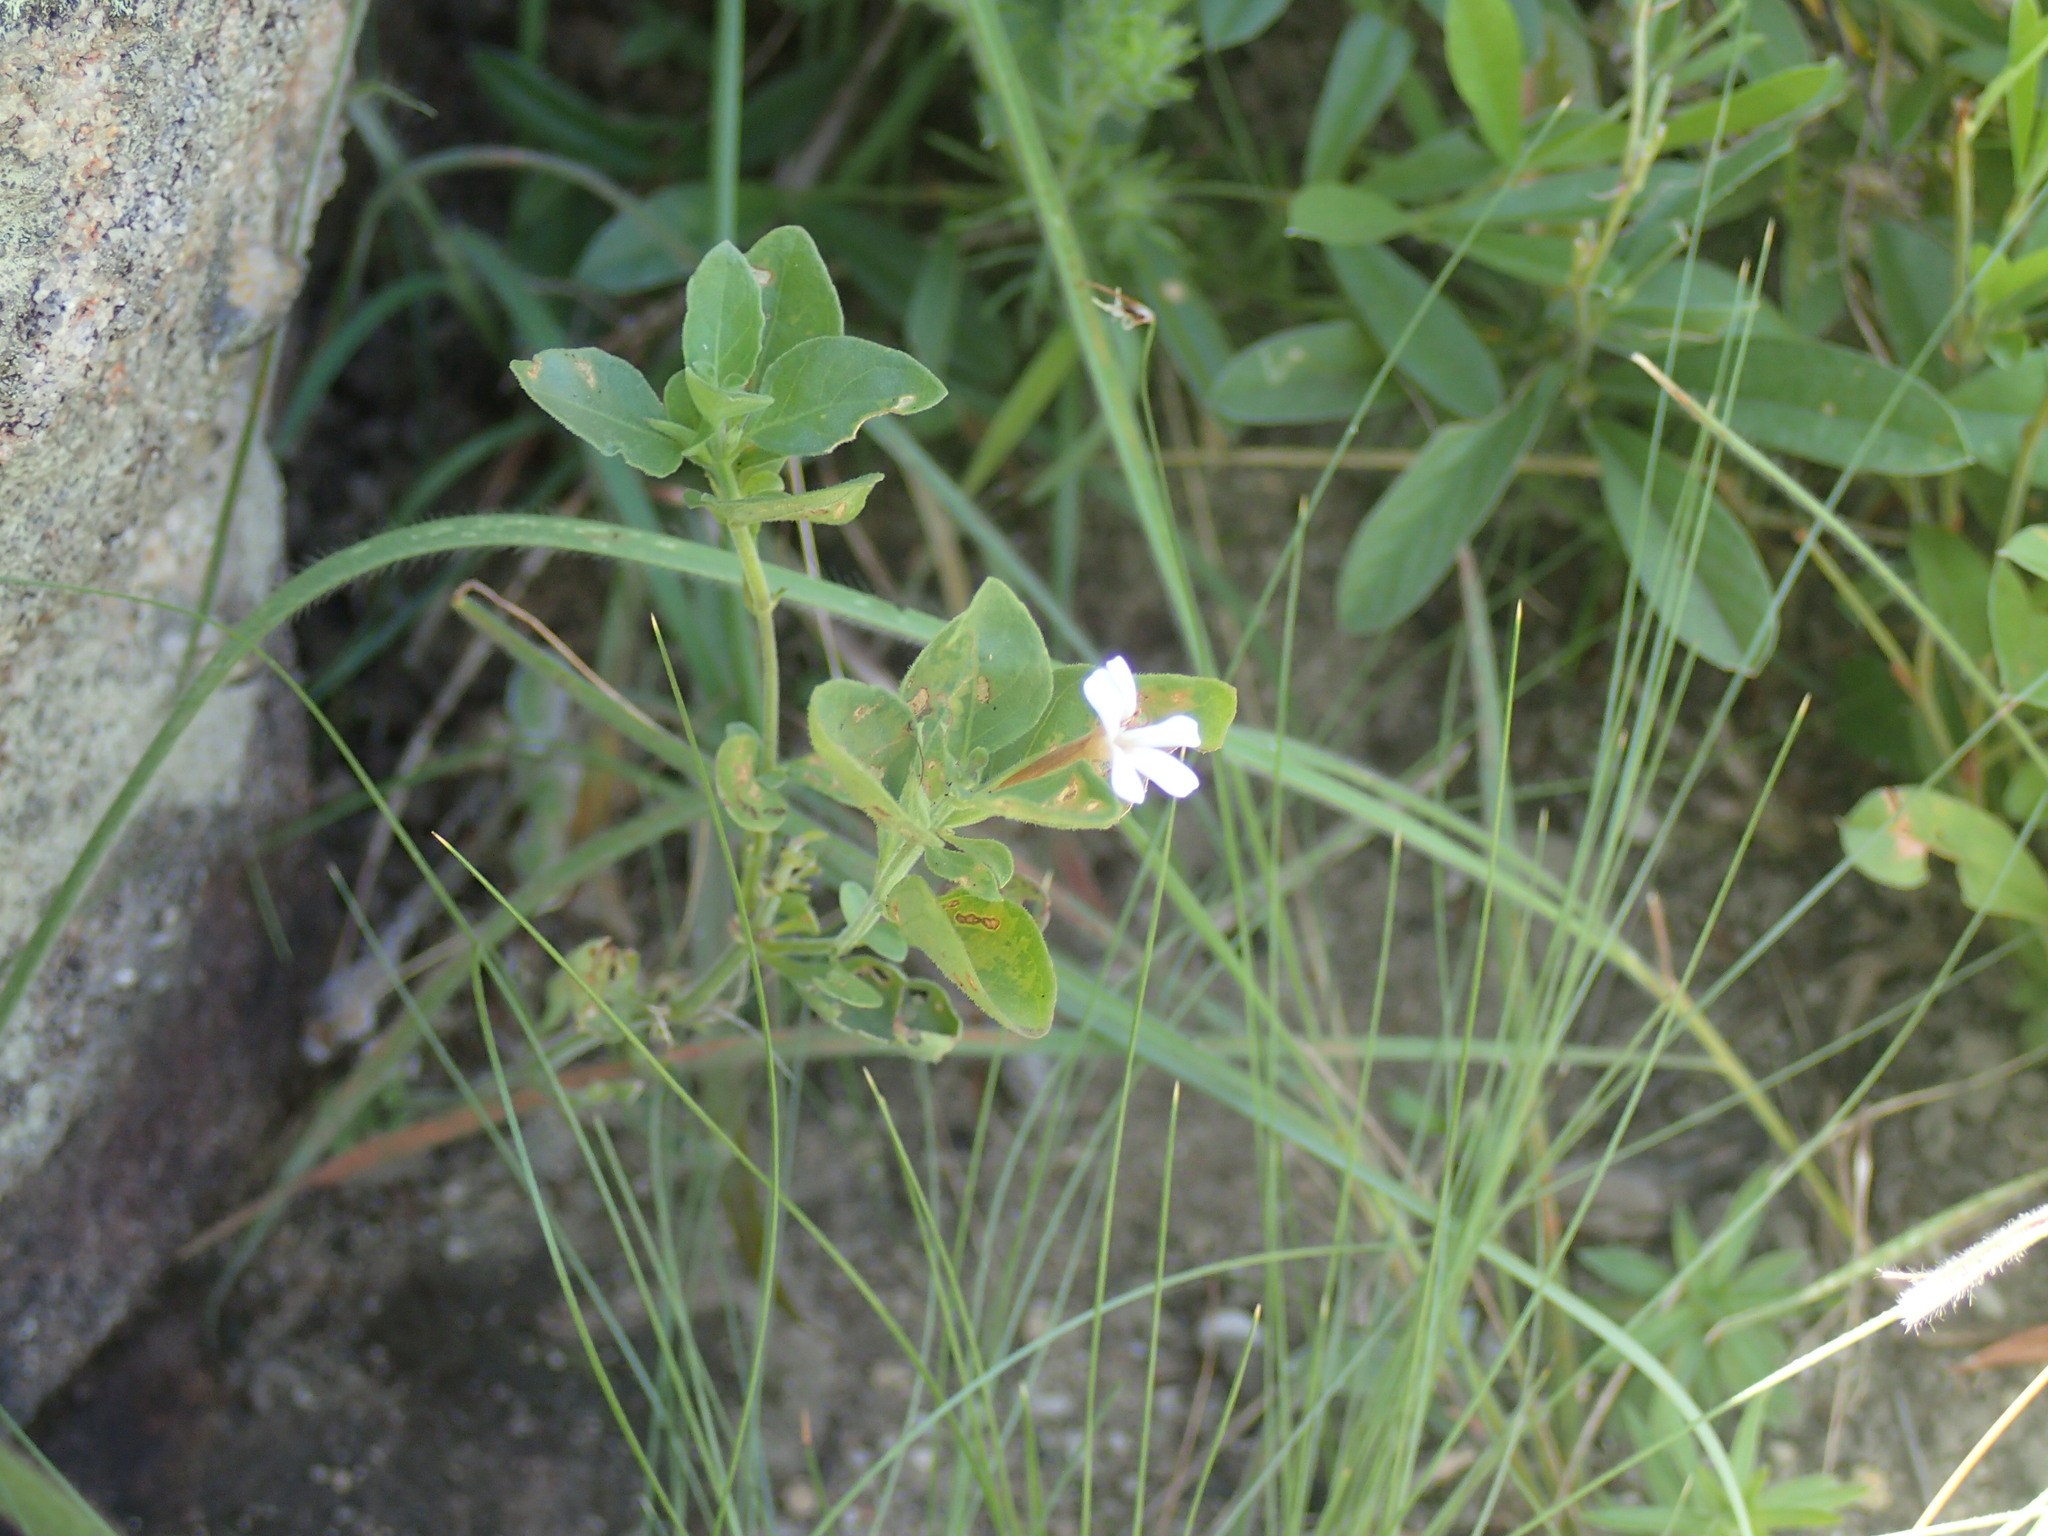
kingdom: Plantae
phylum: Tracheophyta
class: Magnoliopsida
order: Lamiales
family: Acanthaceae
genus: Dyschoriste
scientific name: Dyschoriste setigera
